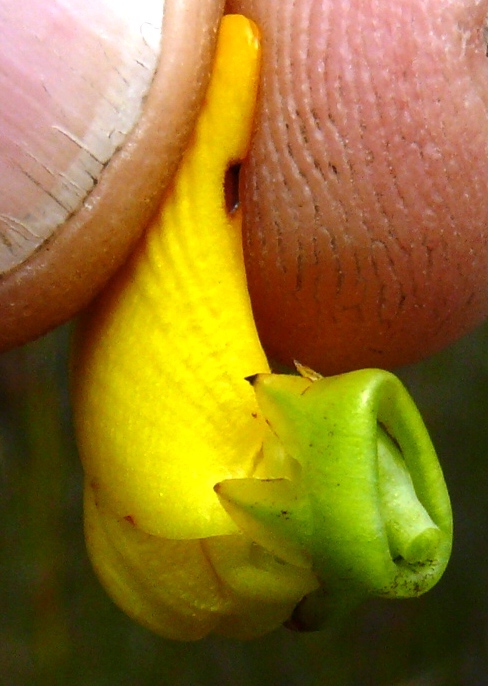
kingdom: Plantae
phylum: Tracheophyta
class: Magnoliopsida
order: Fabales
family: Fabaceae
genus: Cyclopia
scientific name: Cyclopia intermedia
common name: Mountain tea
